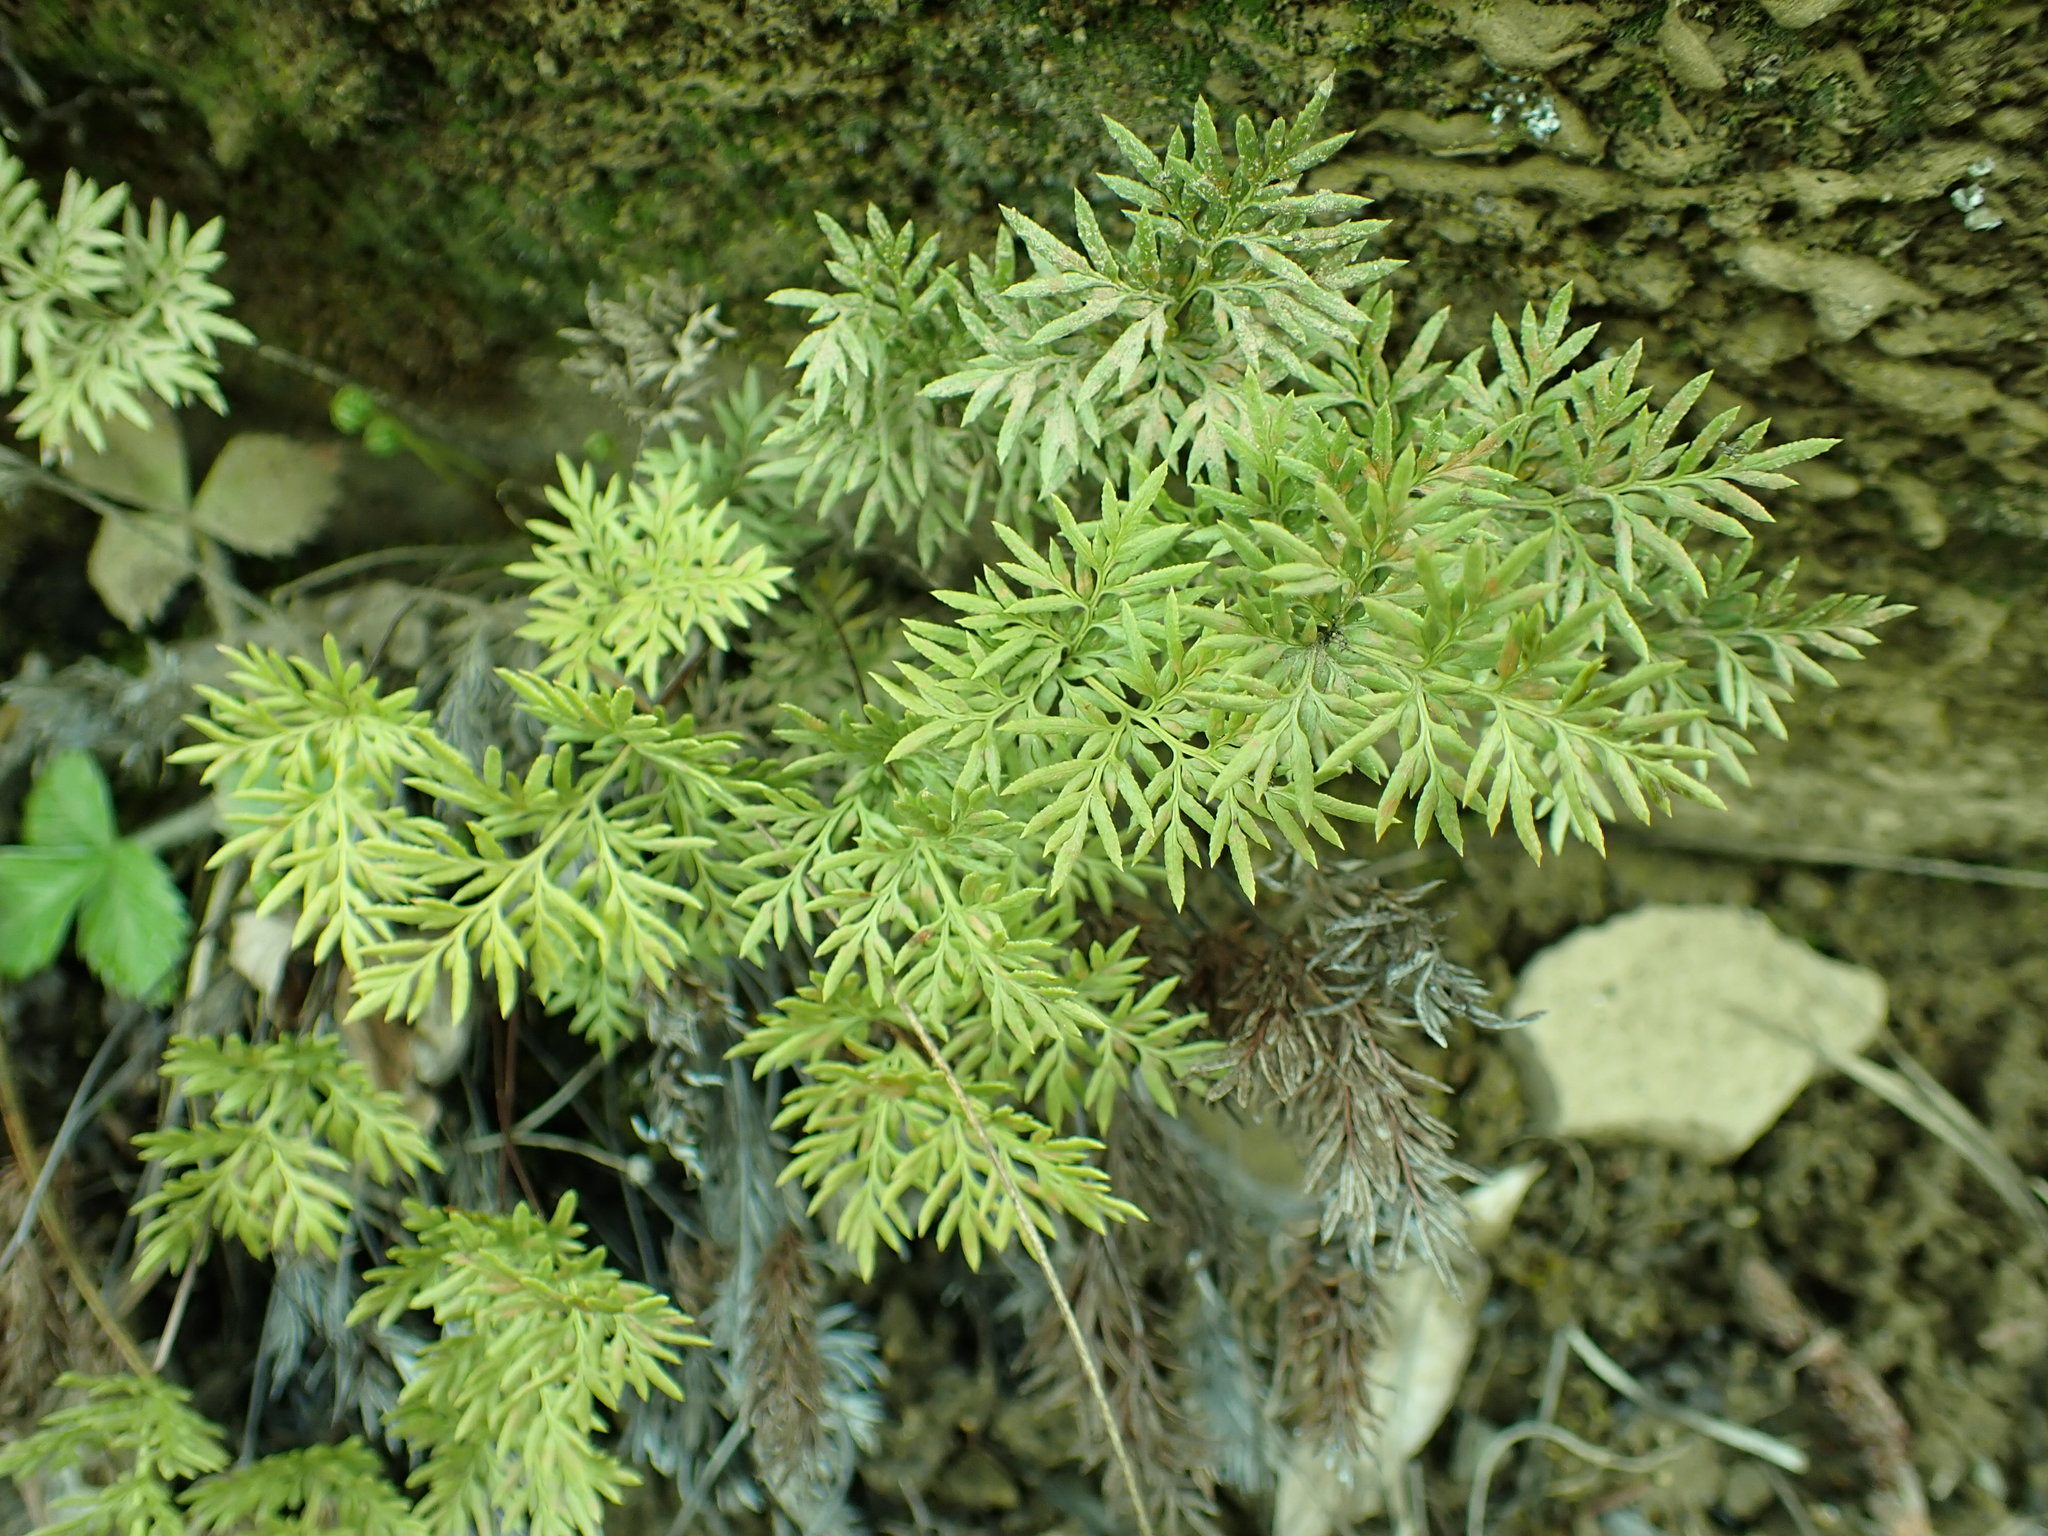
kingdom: Plantae
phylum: Tracheophyta
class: Polypodiopsida
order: Polypodiales
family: Pteridaceae
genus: Aspidotis
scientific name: Aspidotis densa
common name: Indian's dream
